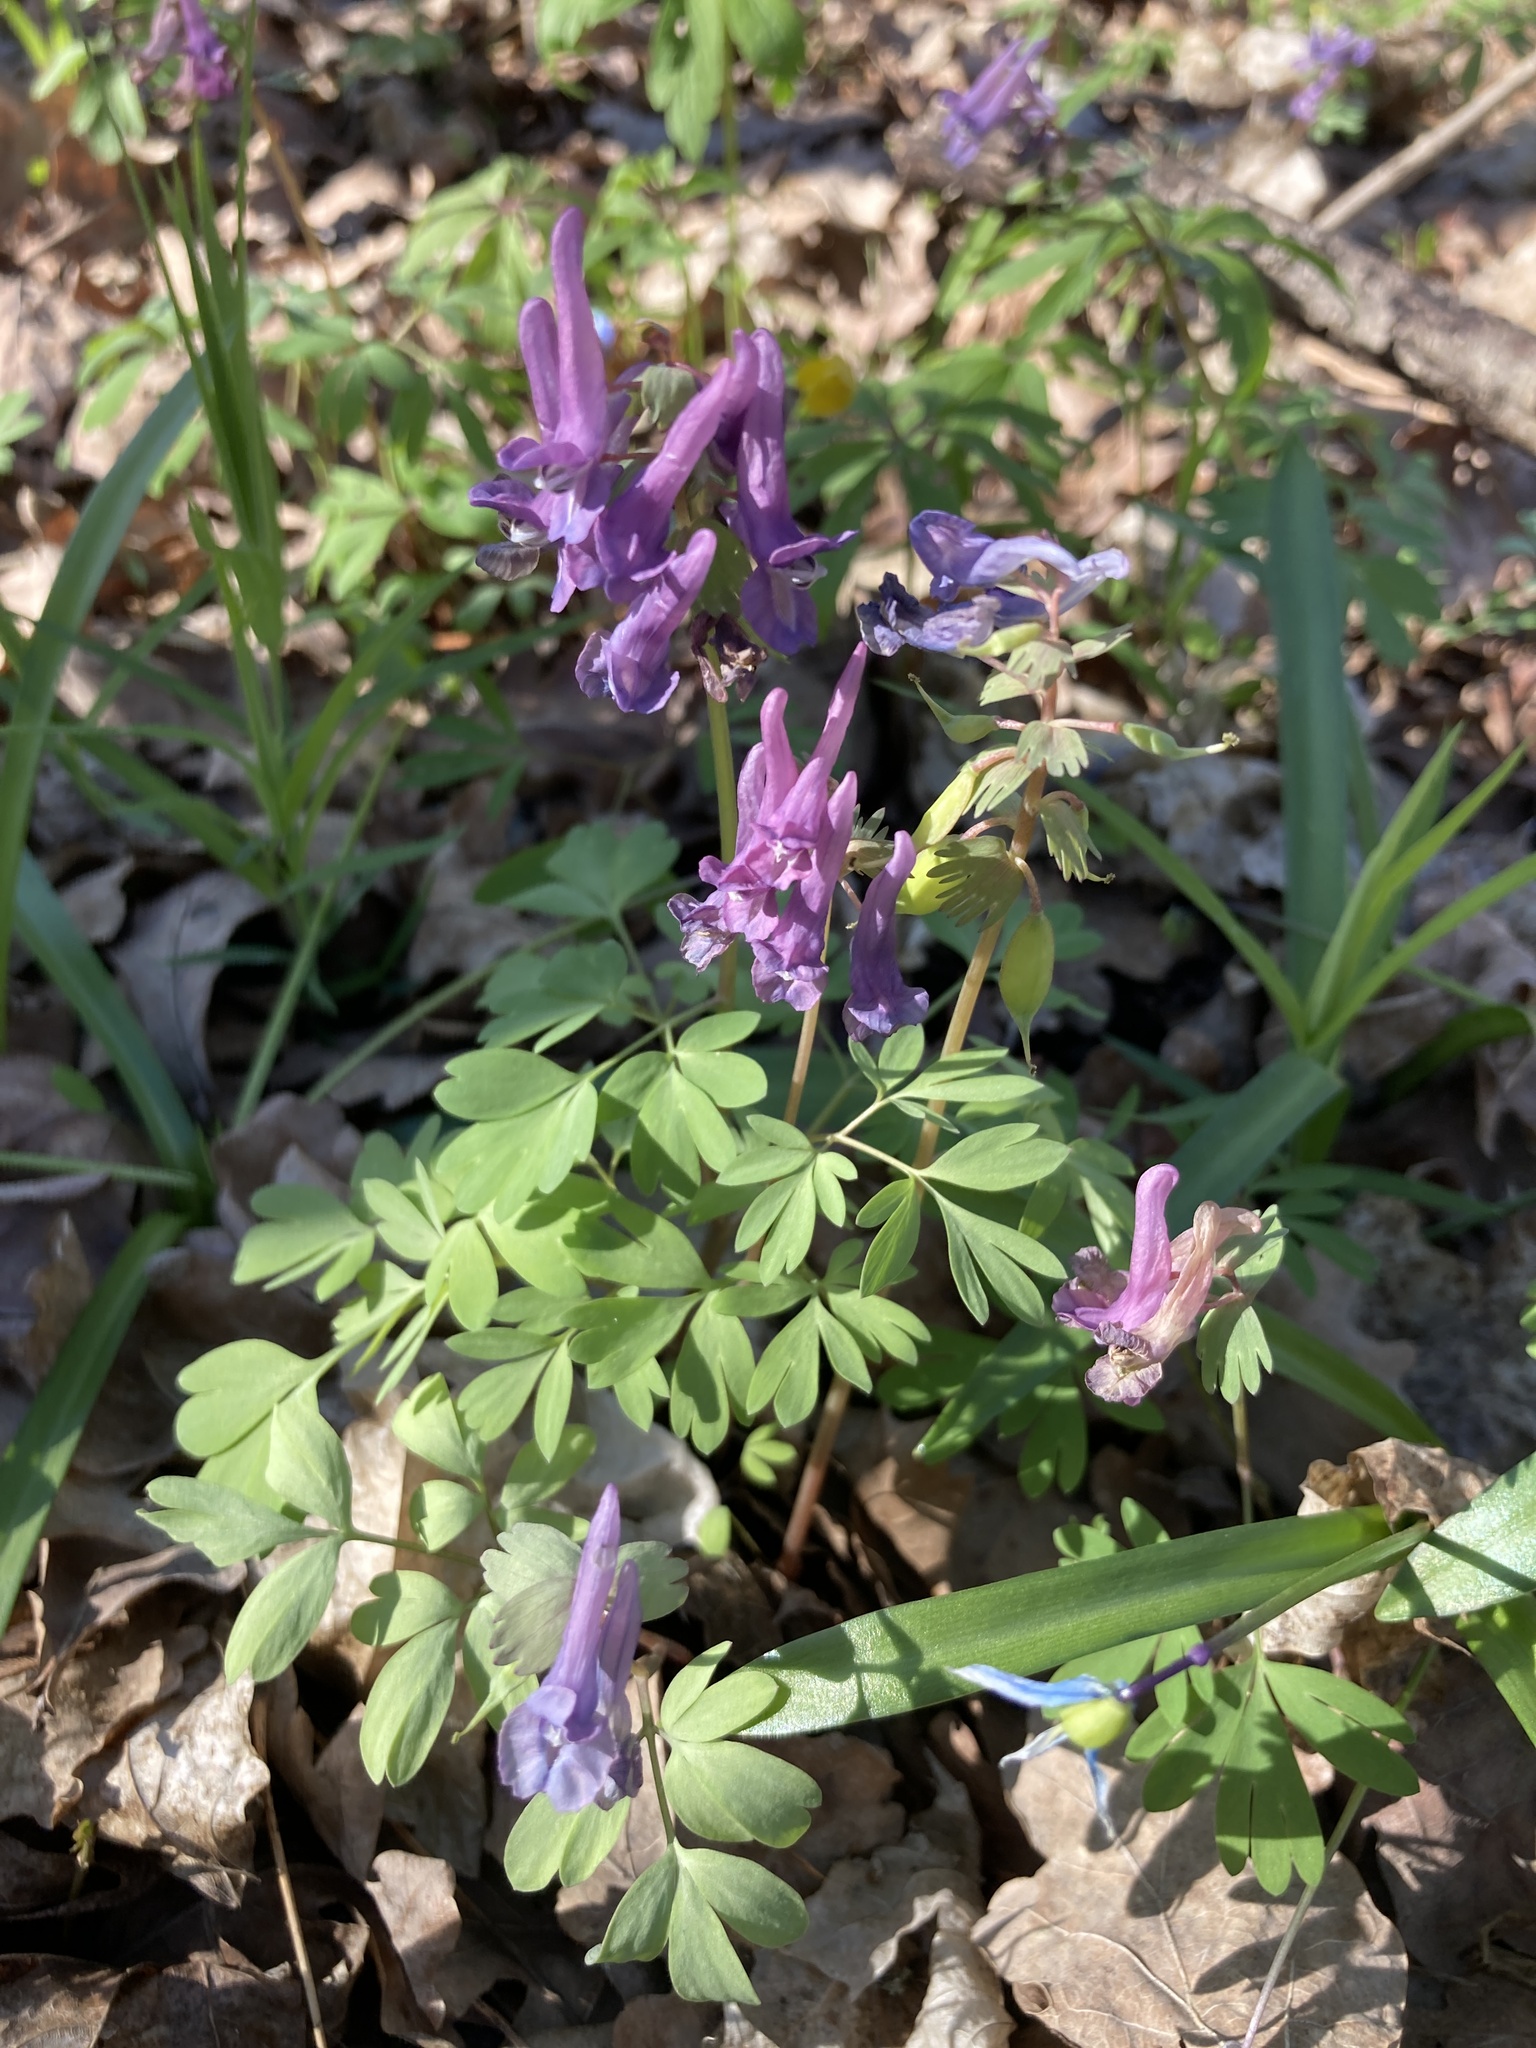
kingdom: Plantae
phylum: Tracheophyta
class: Magnoliopsida
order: Ranunculales
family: Papaveraceae
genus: Corydalis
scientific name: Corydalis solida
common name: Bird-in-a-bush
